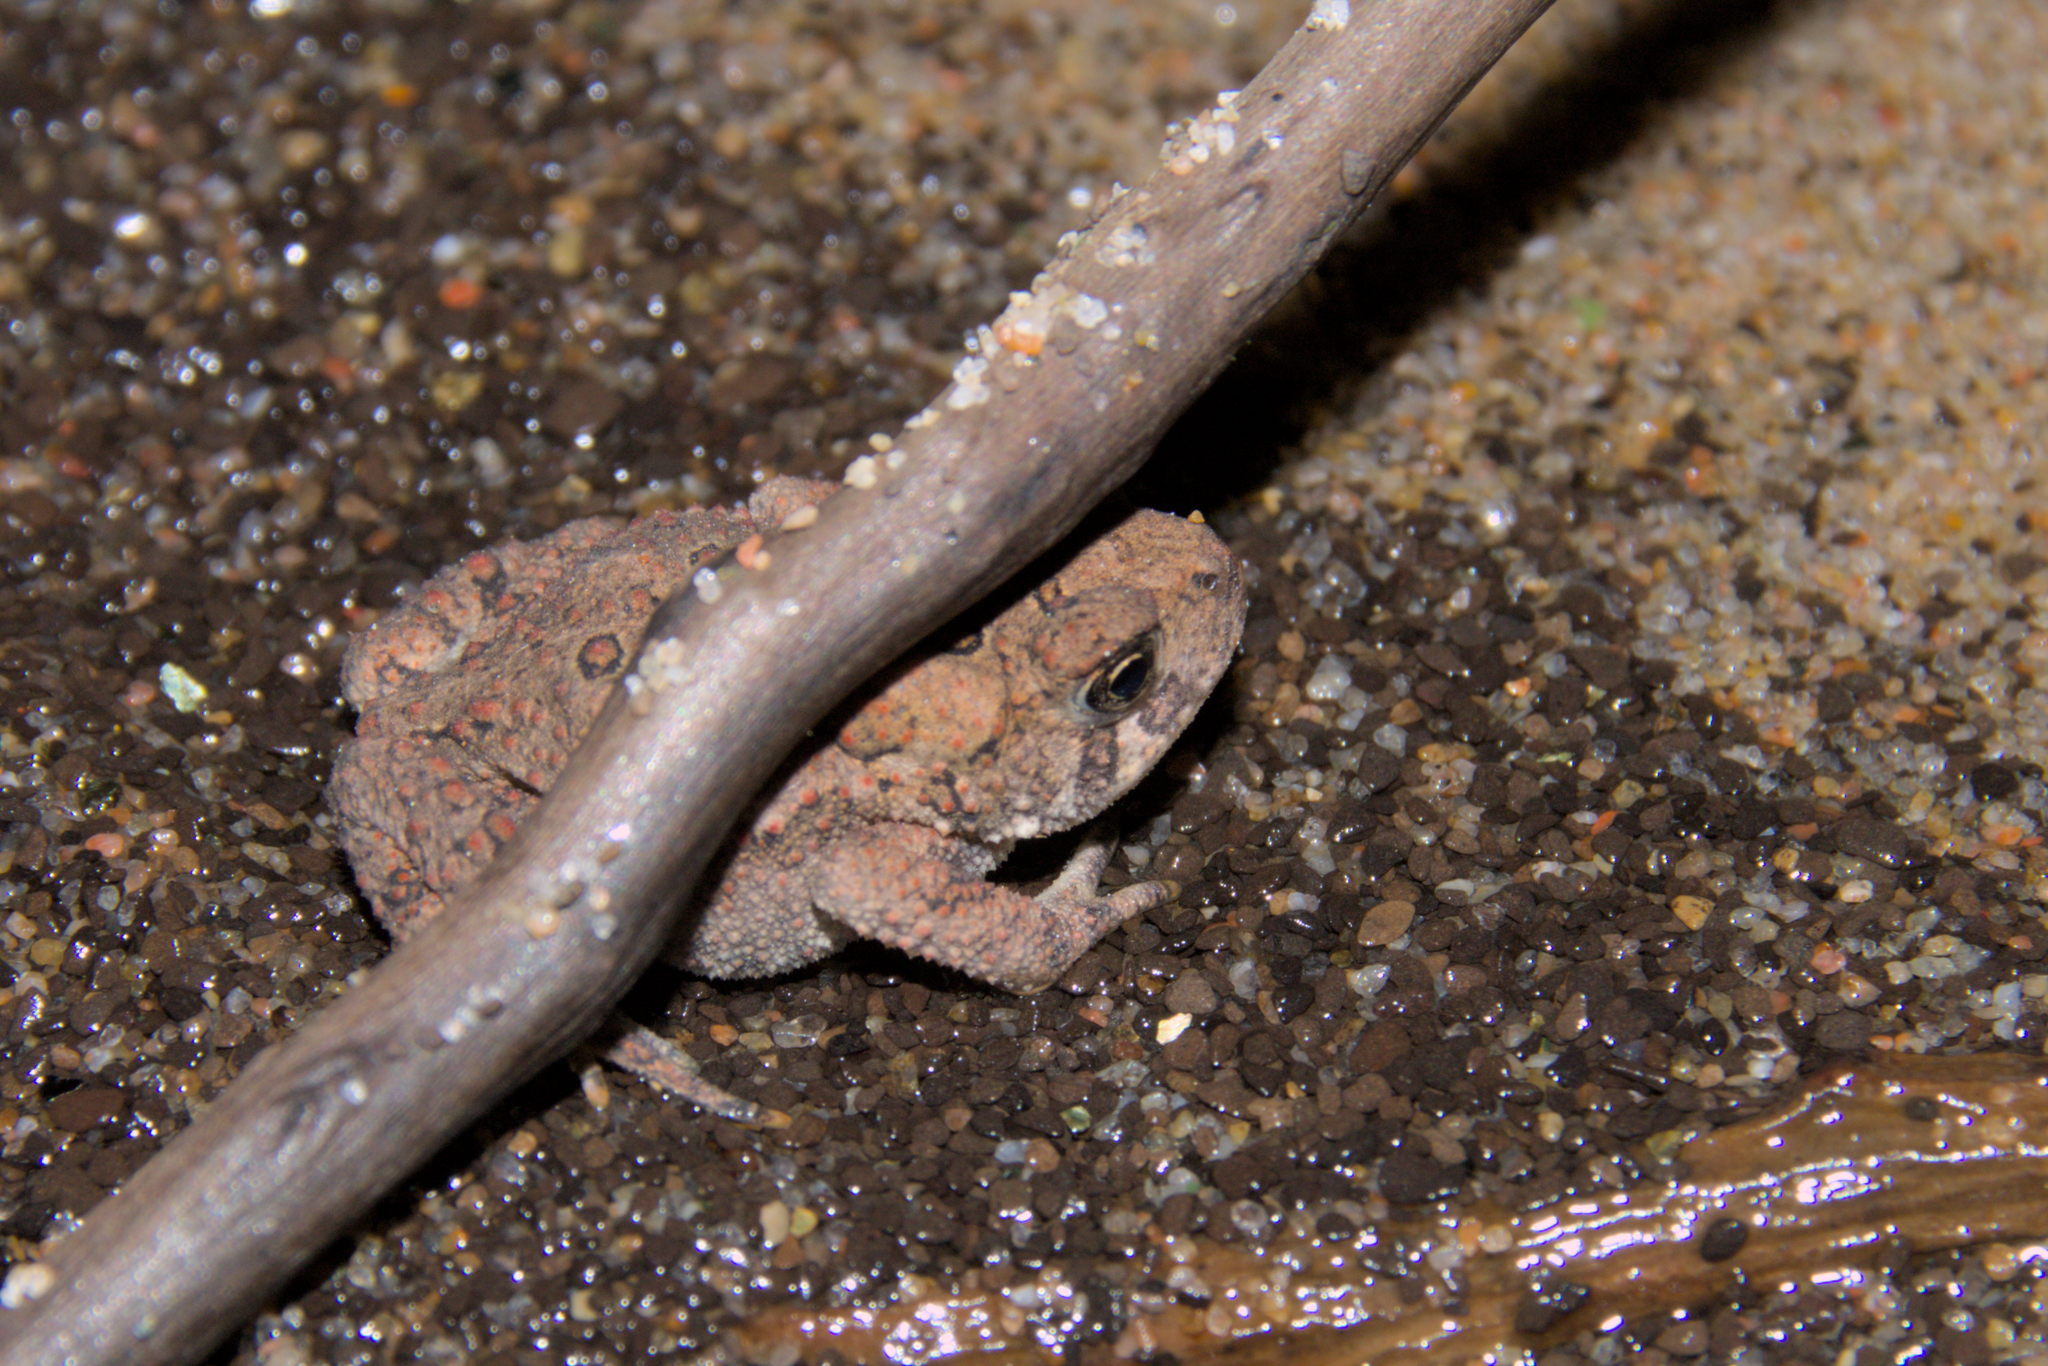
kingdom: Animalia
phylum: Chordata
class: Amphibia
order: Anura
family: Bufonidae
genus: Anaxyrus
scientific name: Anaxyrus americanus
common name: American toad
